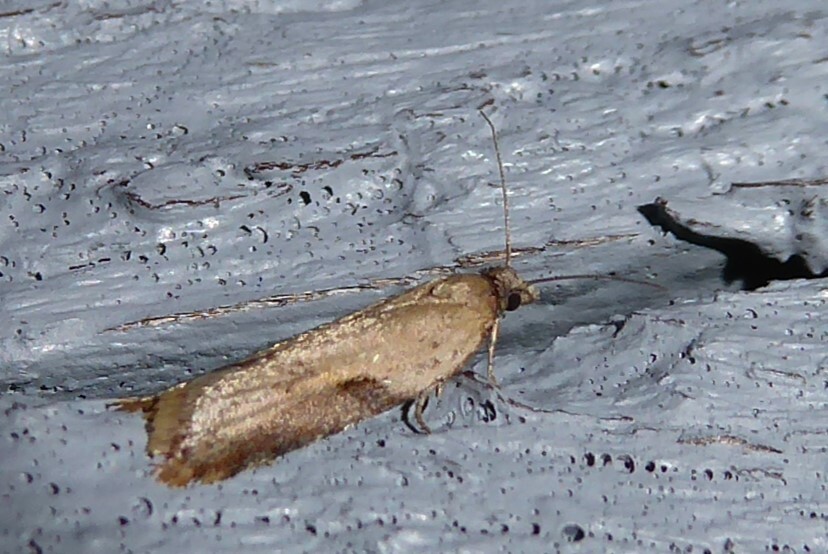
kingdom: Animalia
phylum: Arthropoda
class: Insecta
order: Lepidoptera
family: Tortricidae
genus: Capua
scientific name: Capua semiferana
